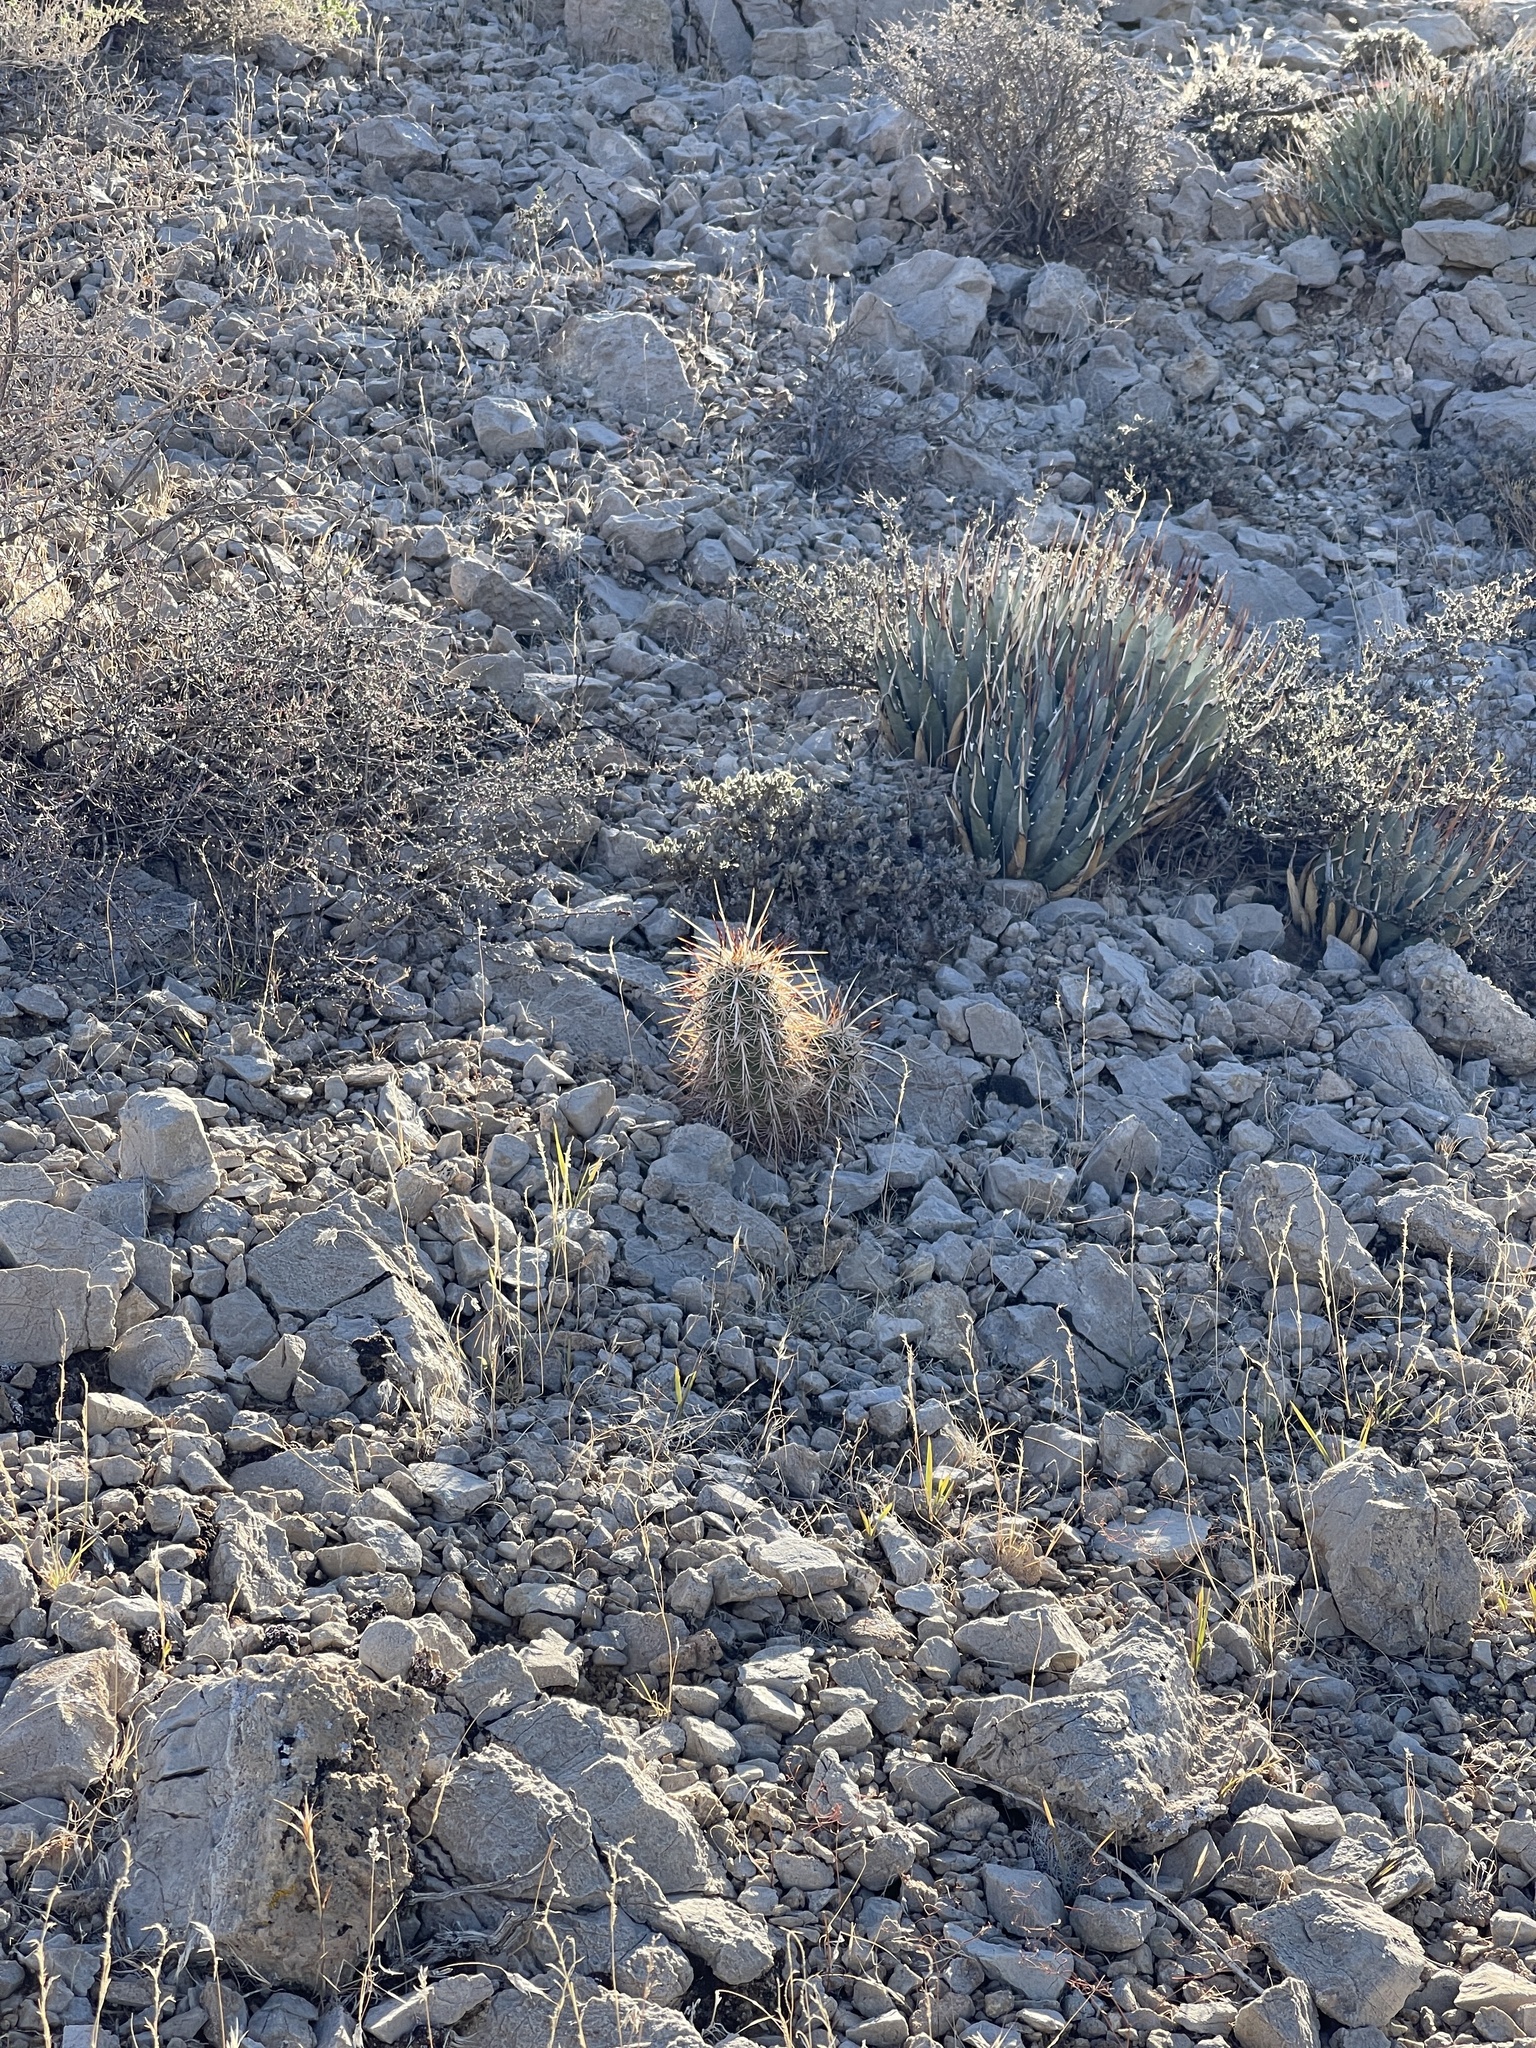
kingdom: Plantae
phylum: Tracheophyta
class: Magnoliopsida
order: Caryophyllales
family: Cactaceae
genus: Echinocereus
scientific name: Echinocereus engelmannii
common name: Engelmann's hedgehog cactus
